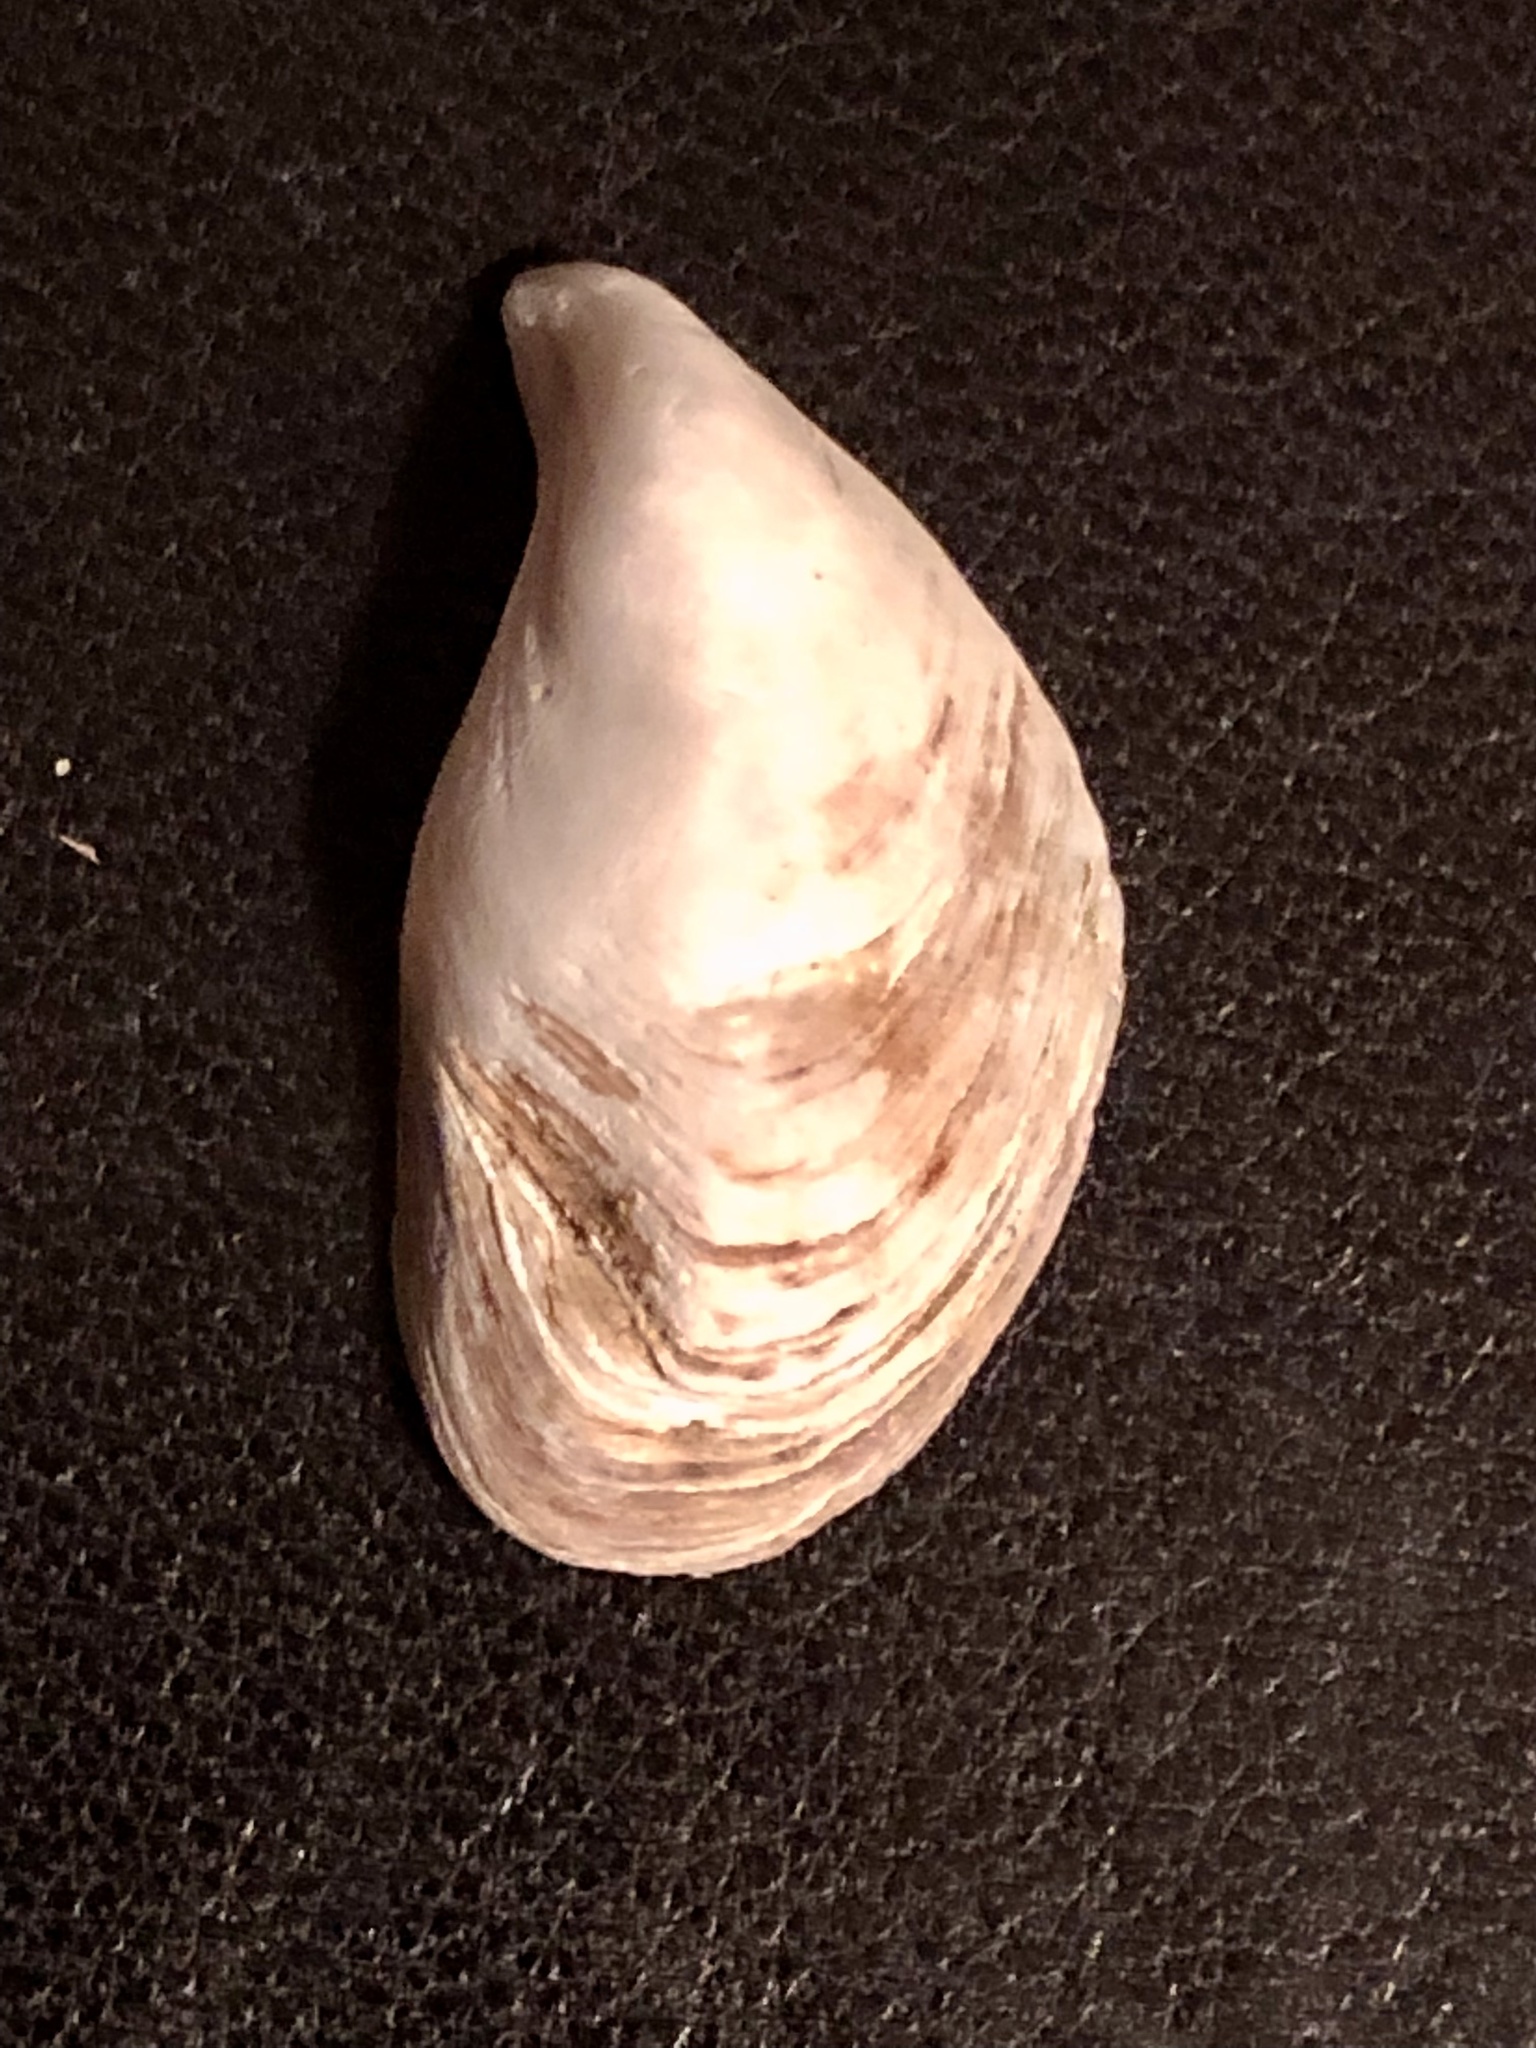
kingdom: Animalia
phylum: Mollusca
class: Bivalvia
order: Myida
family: Dreissenidae
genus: Dreissena
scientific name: Dreissena bugensis
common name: Quagga mussel
